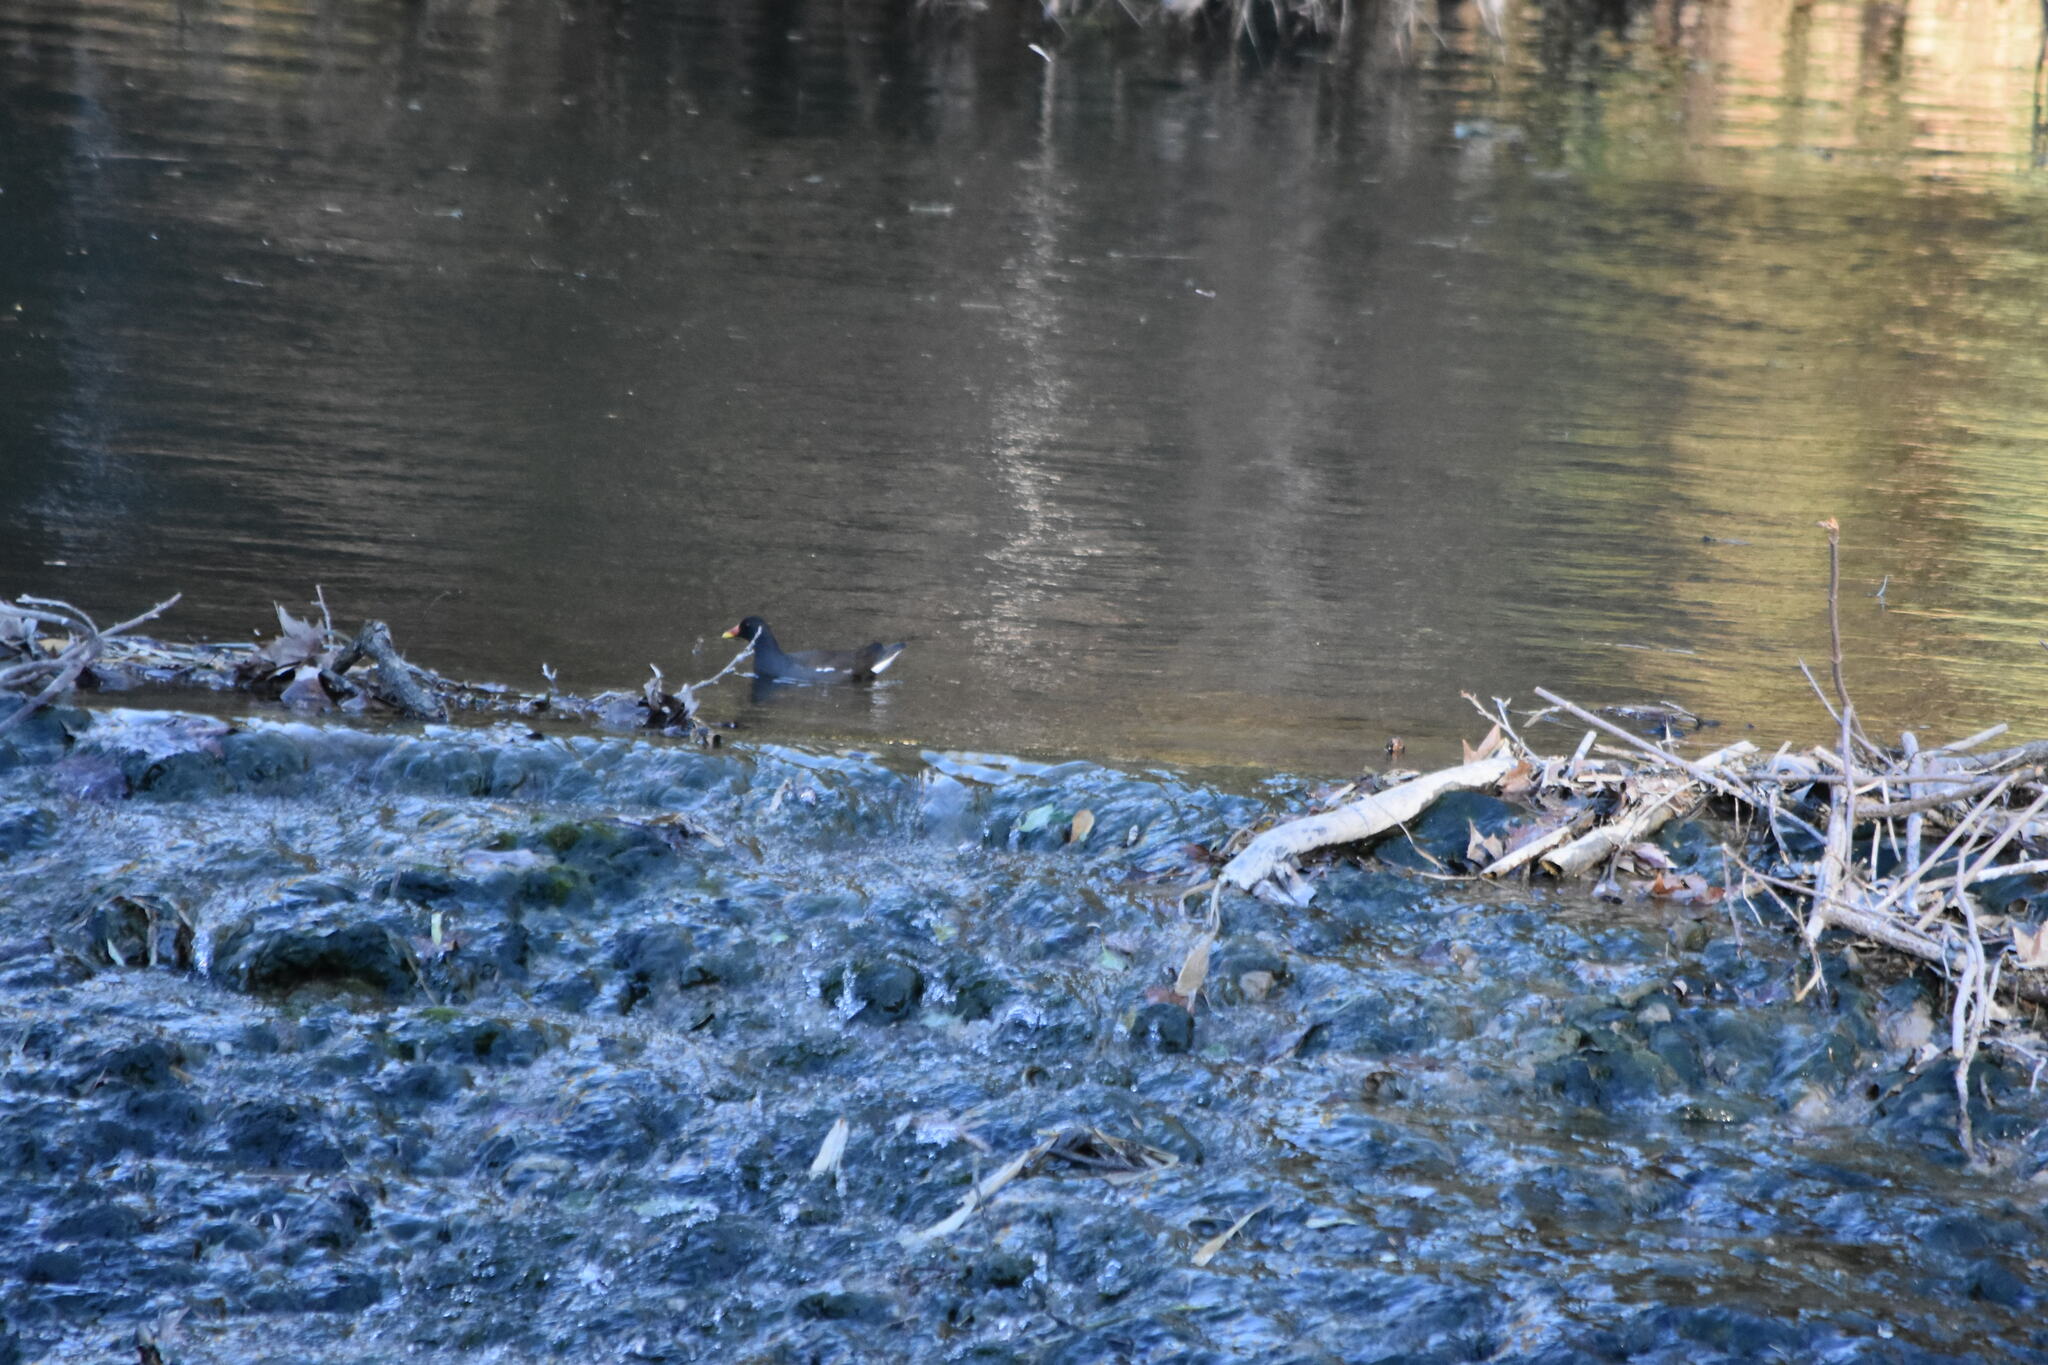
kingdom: Animalia
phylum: Chordata
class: Aves
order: Gruiformes
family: Rallidae
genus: Gallinula
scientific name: Gallinula chloropus
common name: Common moorhen
